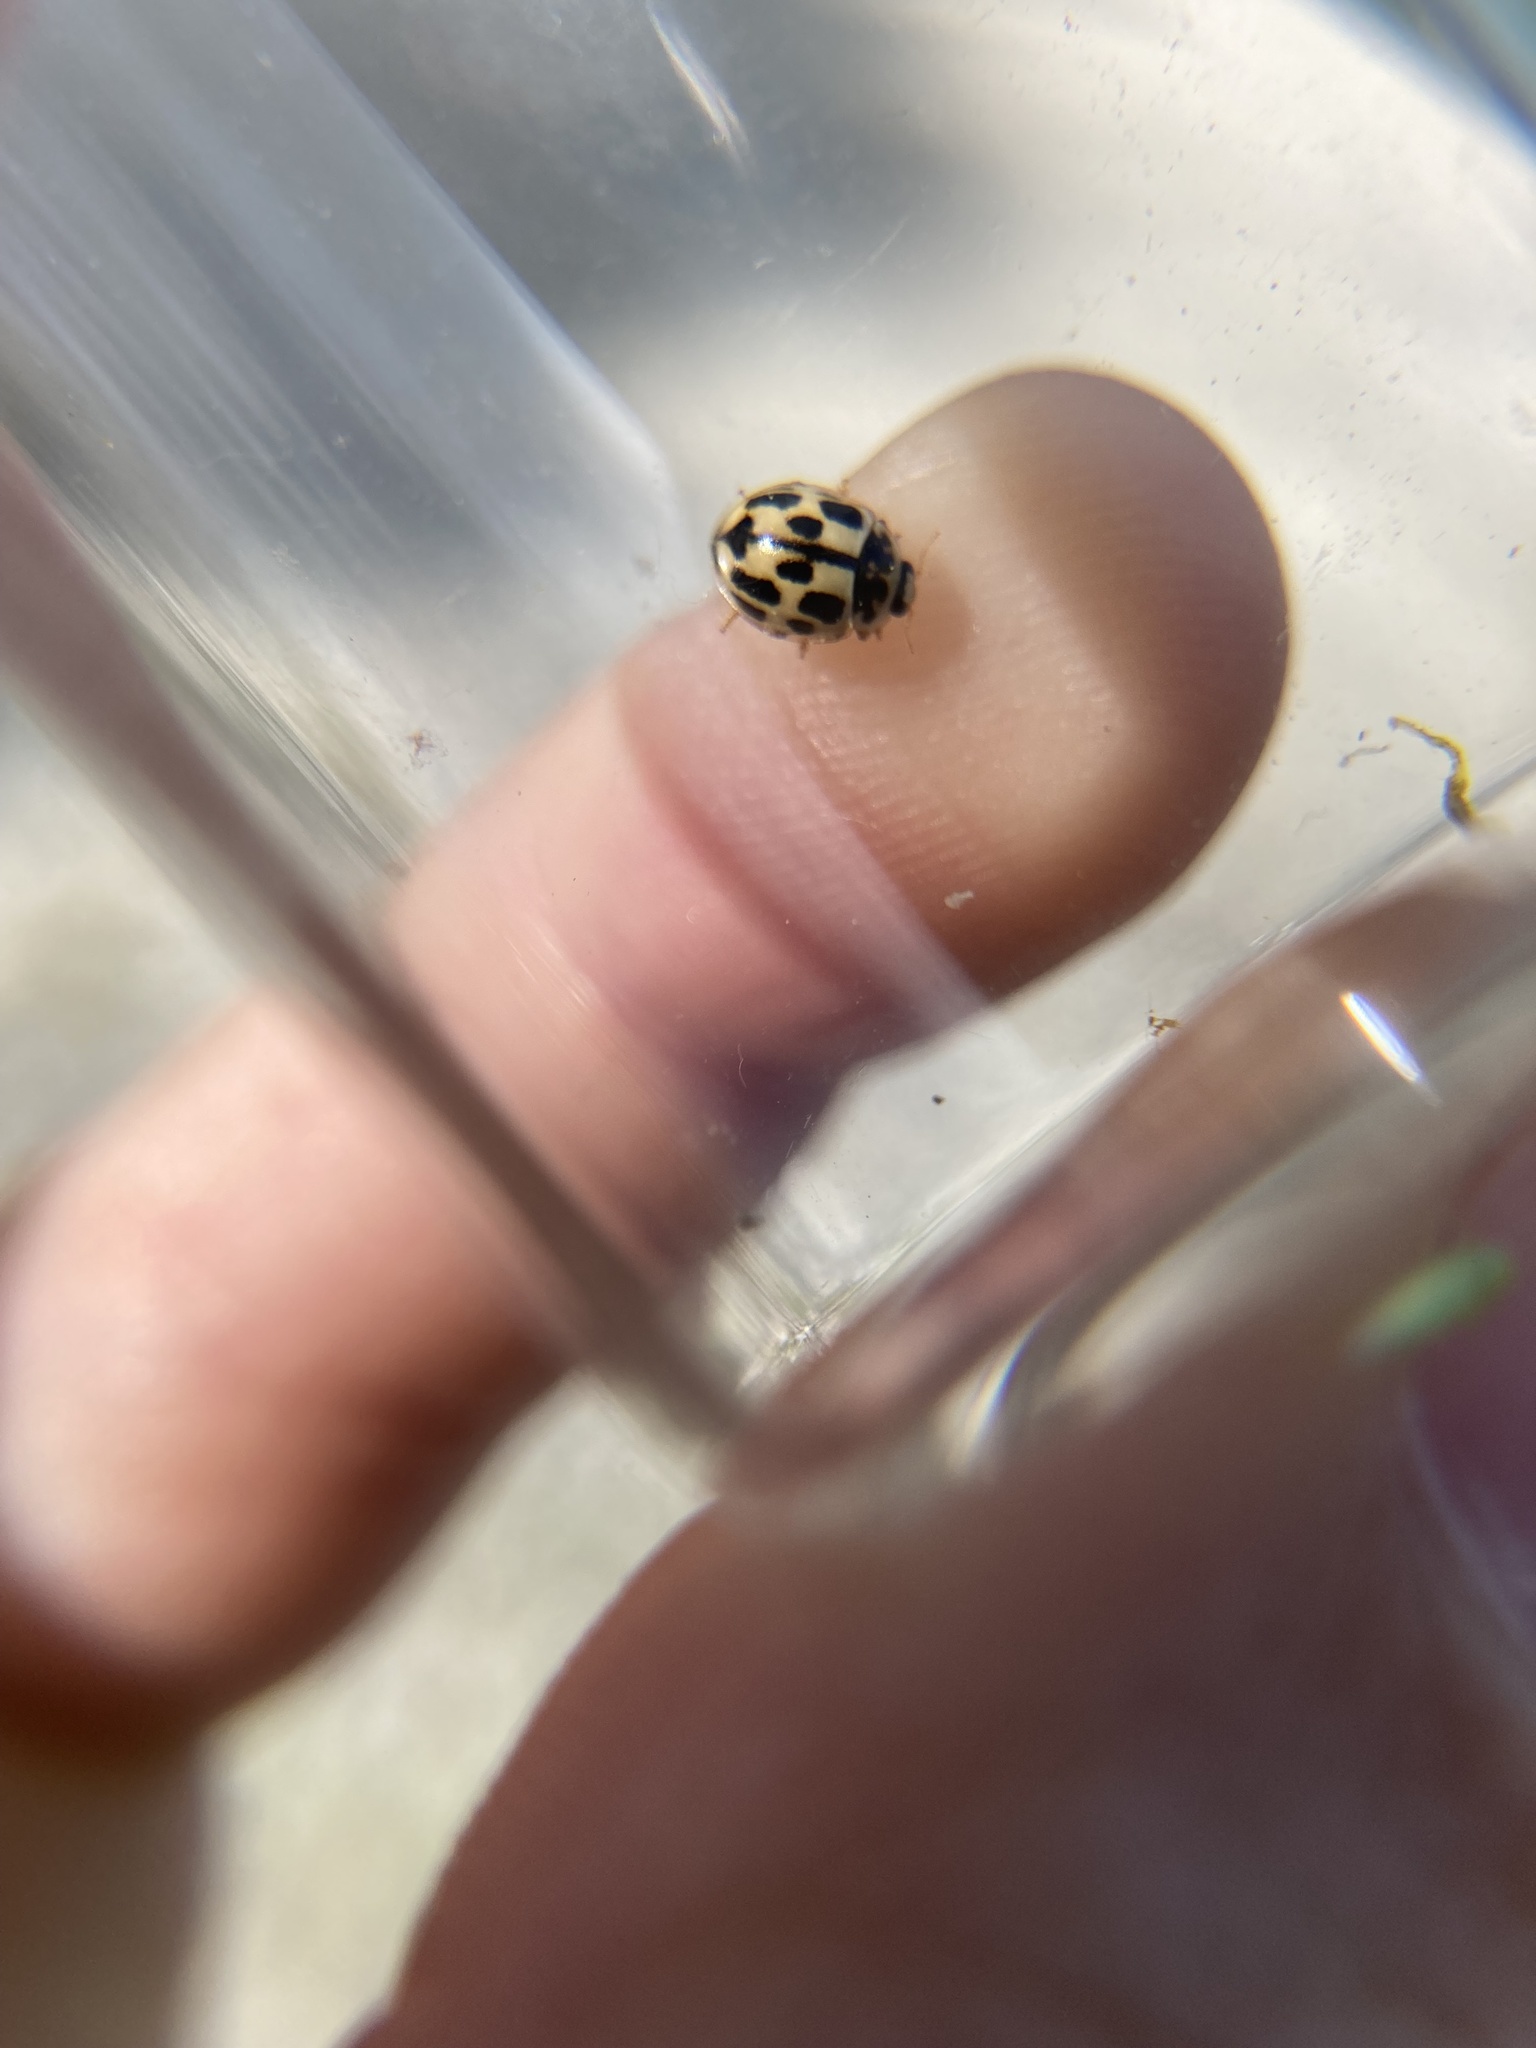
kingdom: Animalia
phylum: Arthropoda
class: Insecta
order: Coleoptera
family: Coccinellidae
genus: Propylaea
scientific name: Propylaea quatuordecimpunctata
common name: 14-spotted ladybird beetle
